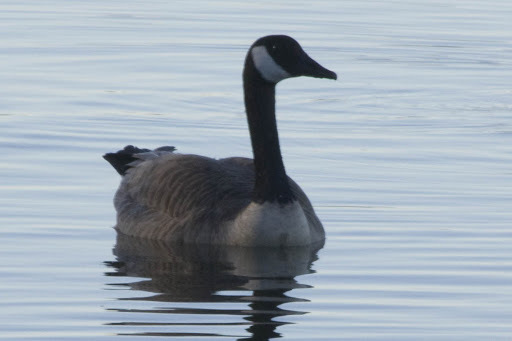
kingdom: Animalia
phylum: Chordata
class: Aves
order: Anseriformes
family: Anatidae
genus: Branta
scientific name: Branta canadensis
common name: Canada goose
